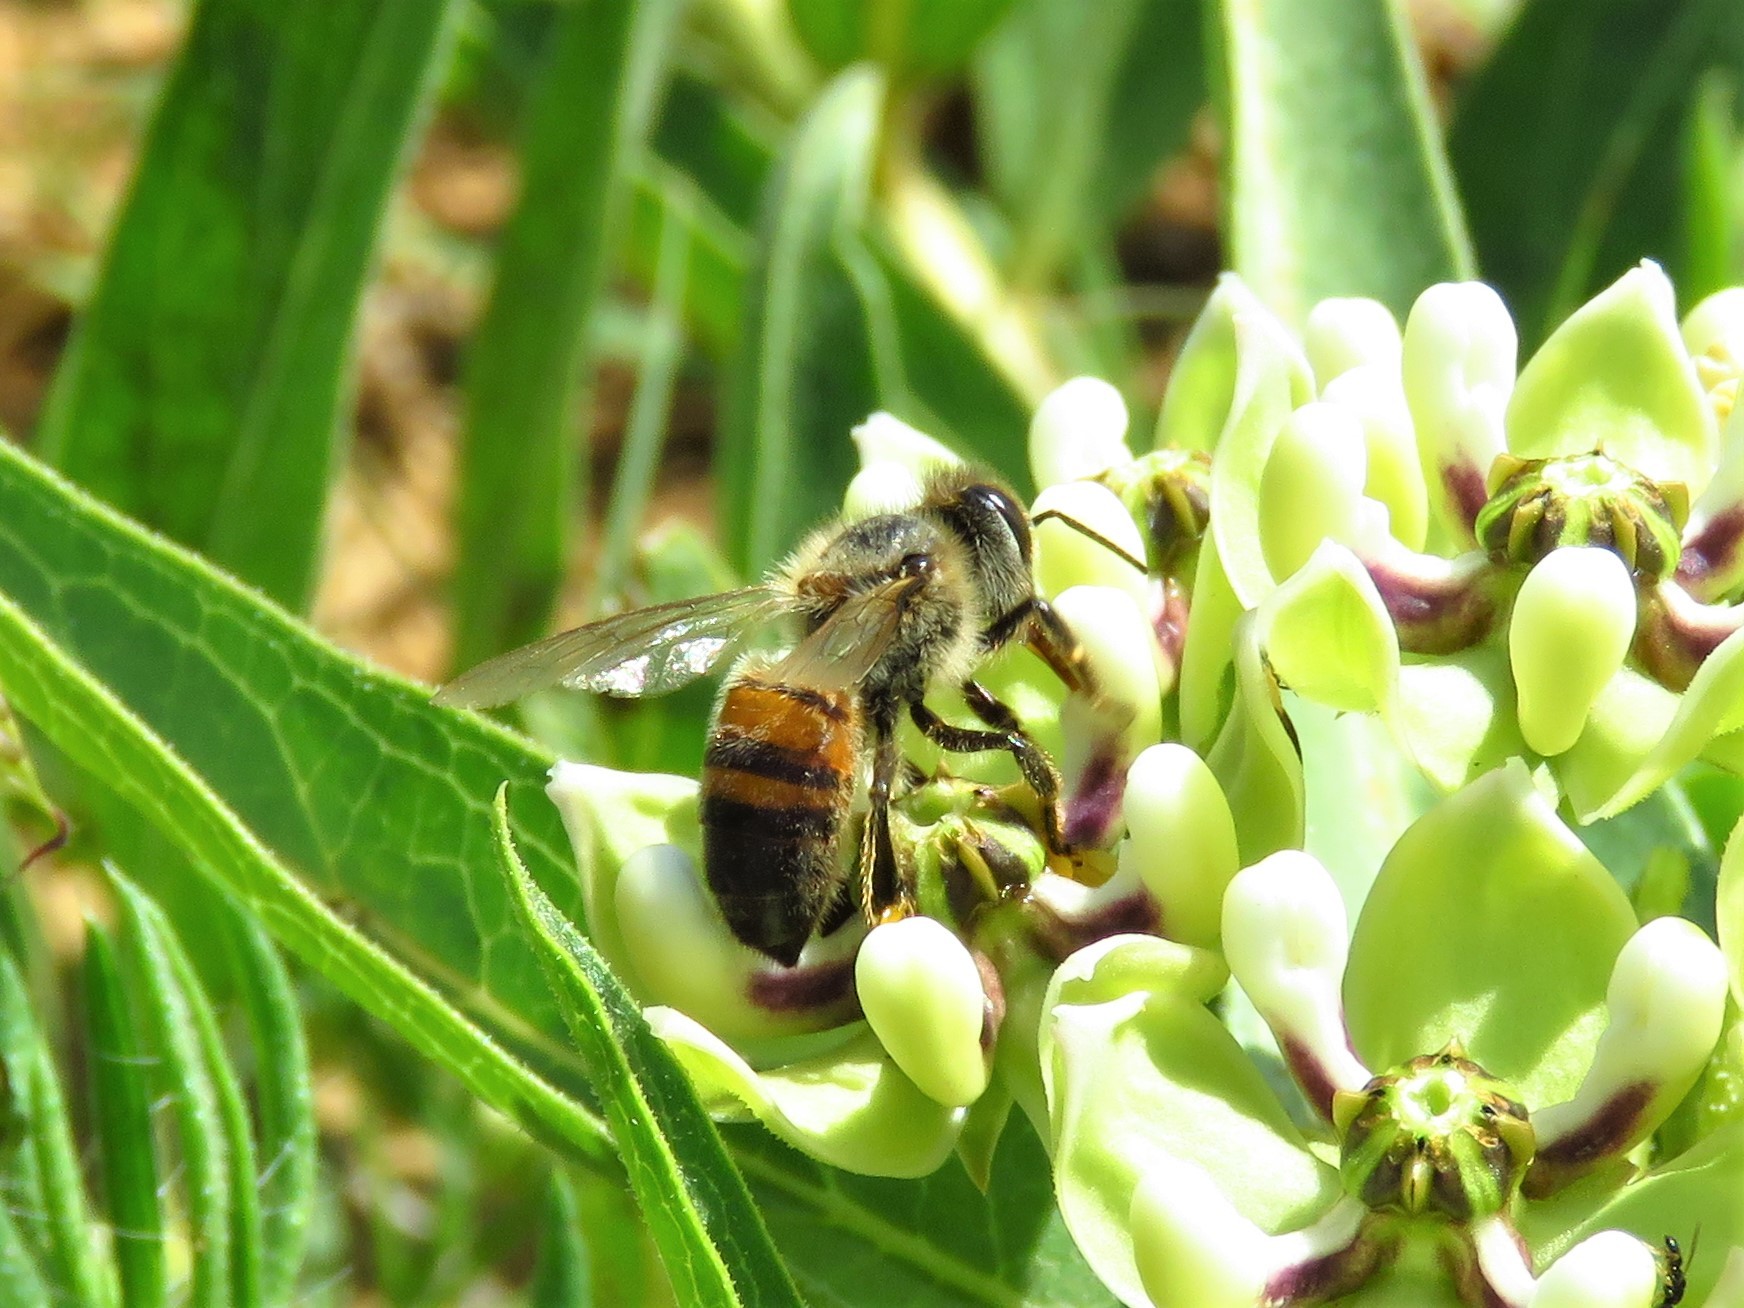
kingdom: Animalia
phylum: Arthropoda
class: Insecta
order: Hymenoptera
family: Apidae
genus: Apis
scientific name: Apis mellifera
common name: Honey bee
